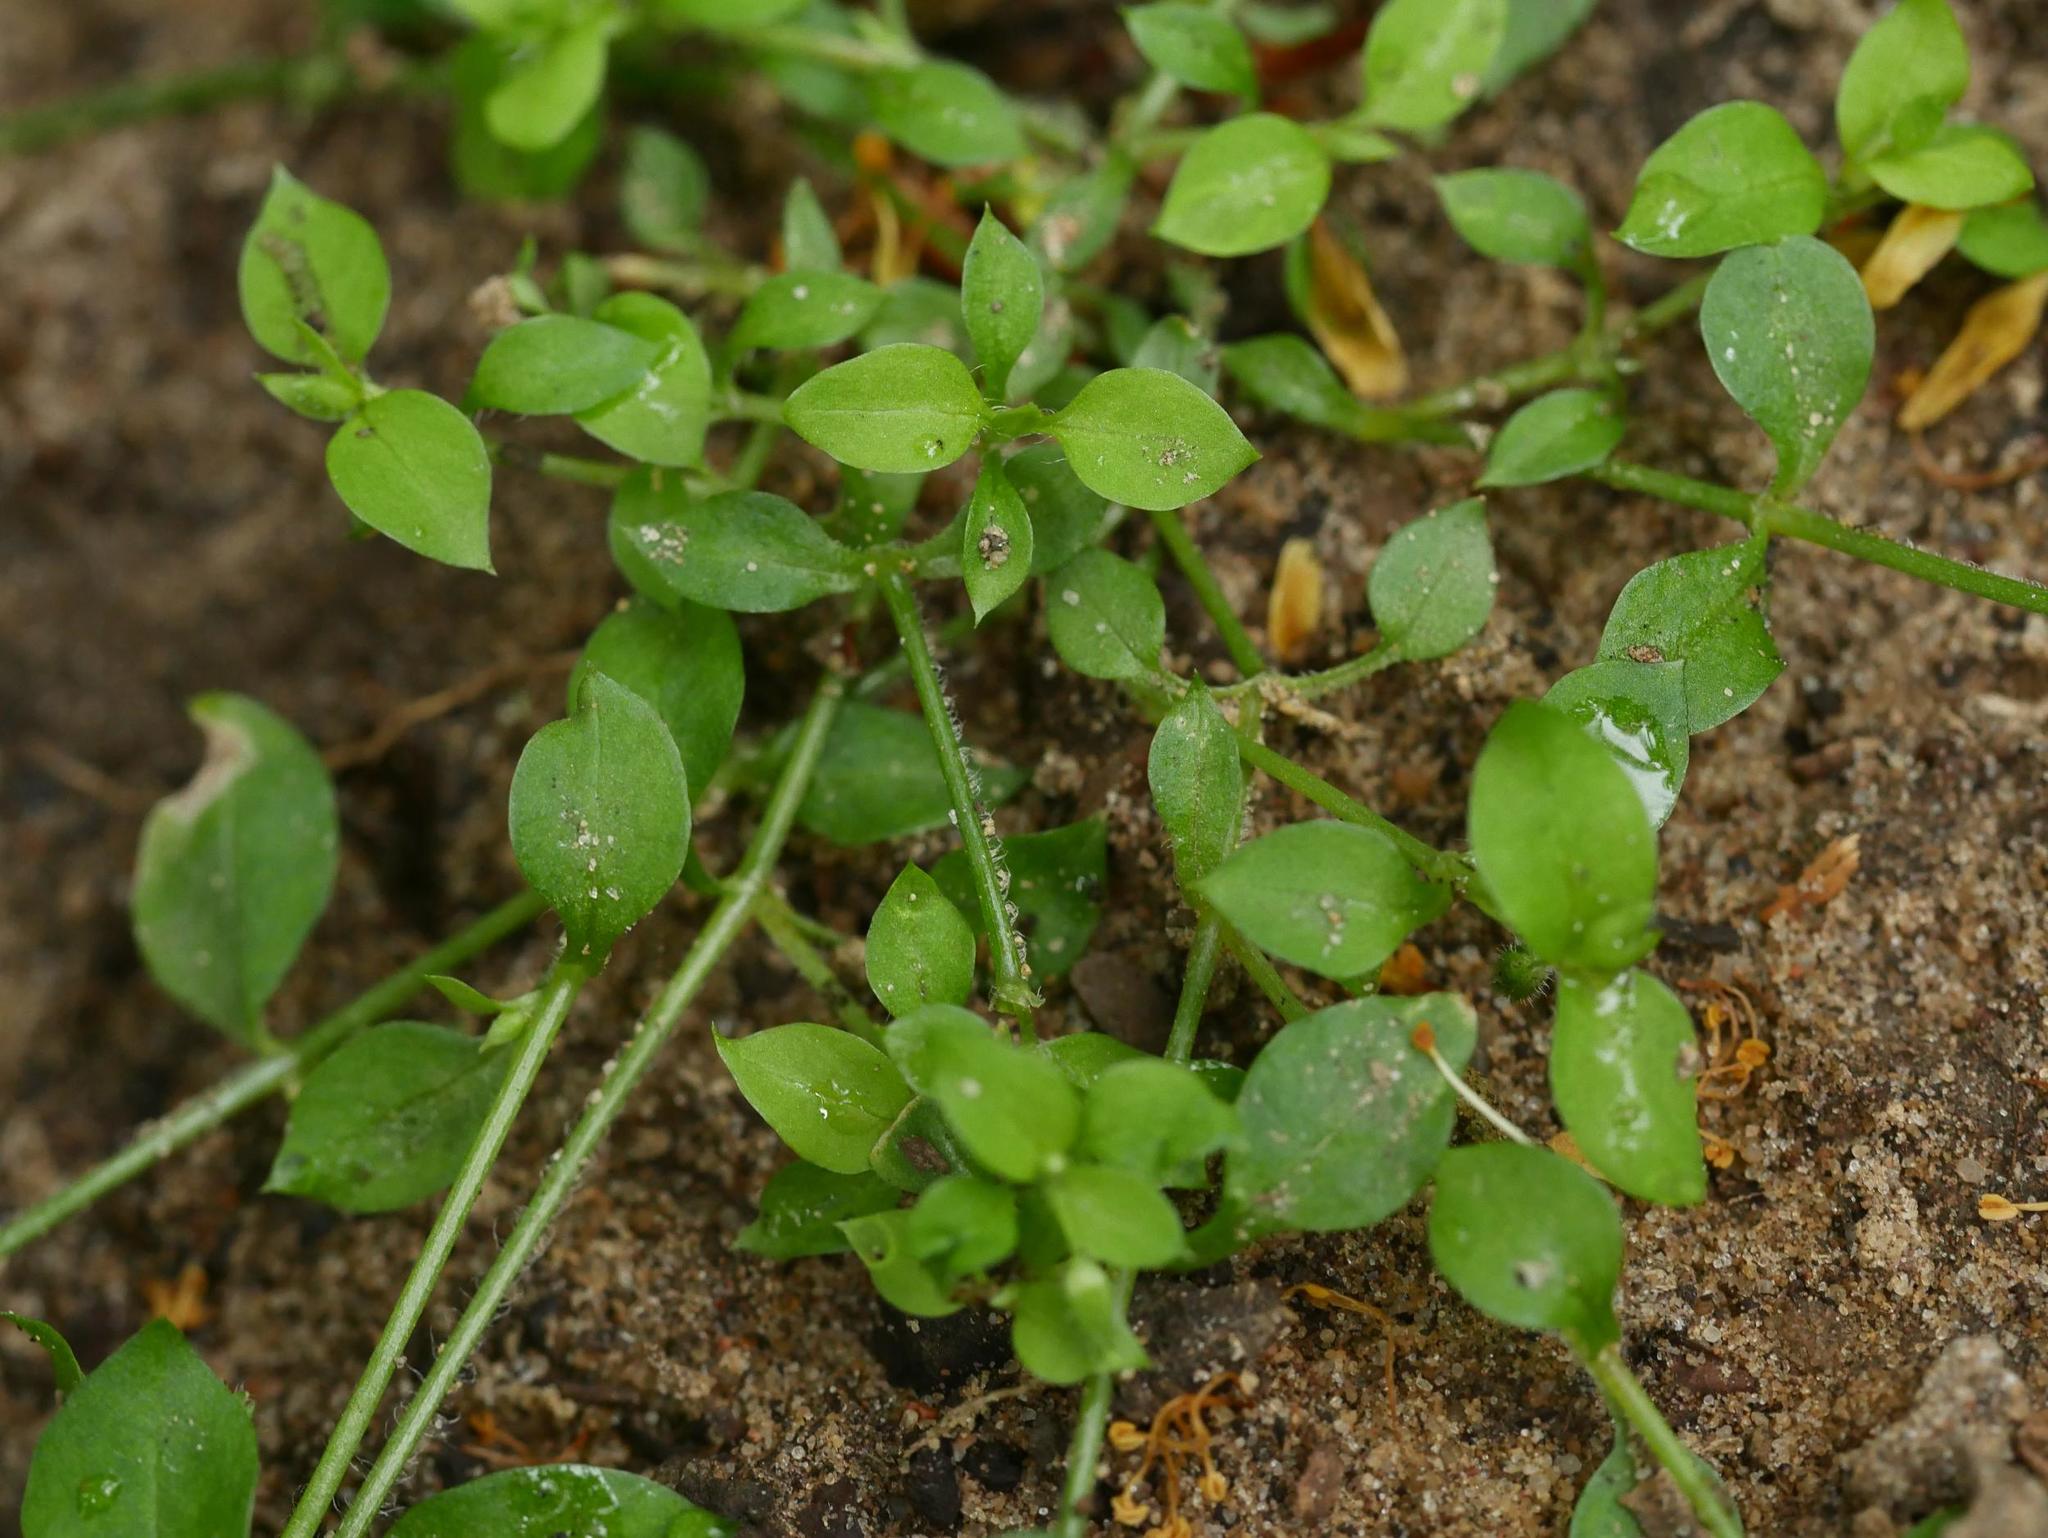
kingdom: Plantae
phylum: Tracheophyta
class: Magnoliopsida
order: Caryophyllales
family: Caryophyllaceae
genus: Stellaria
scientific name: Stellaria media
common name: Common chickweed
